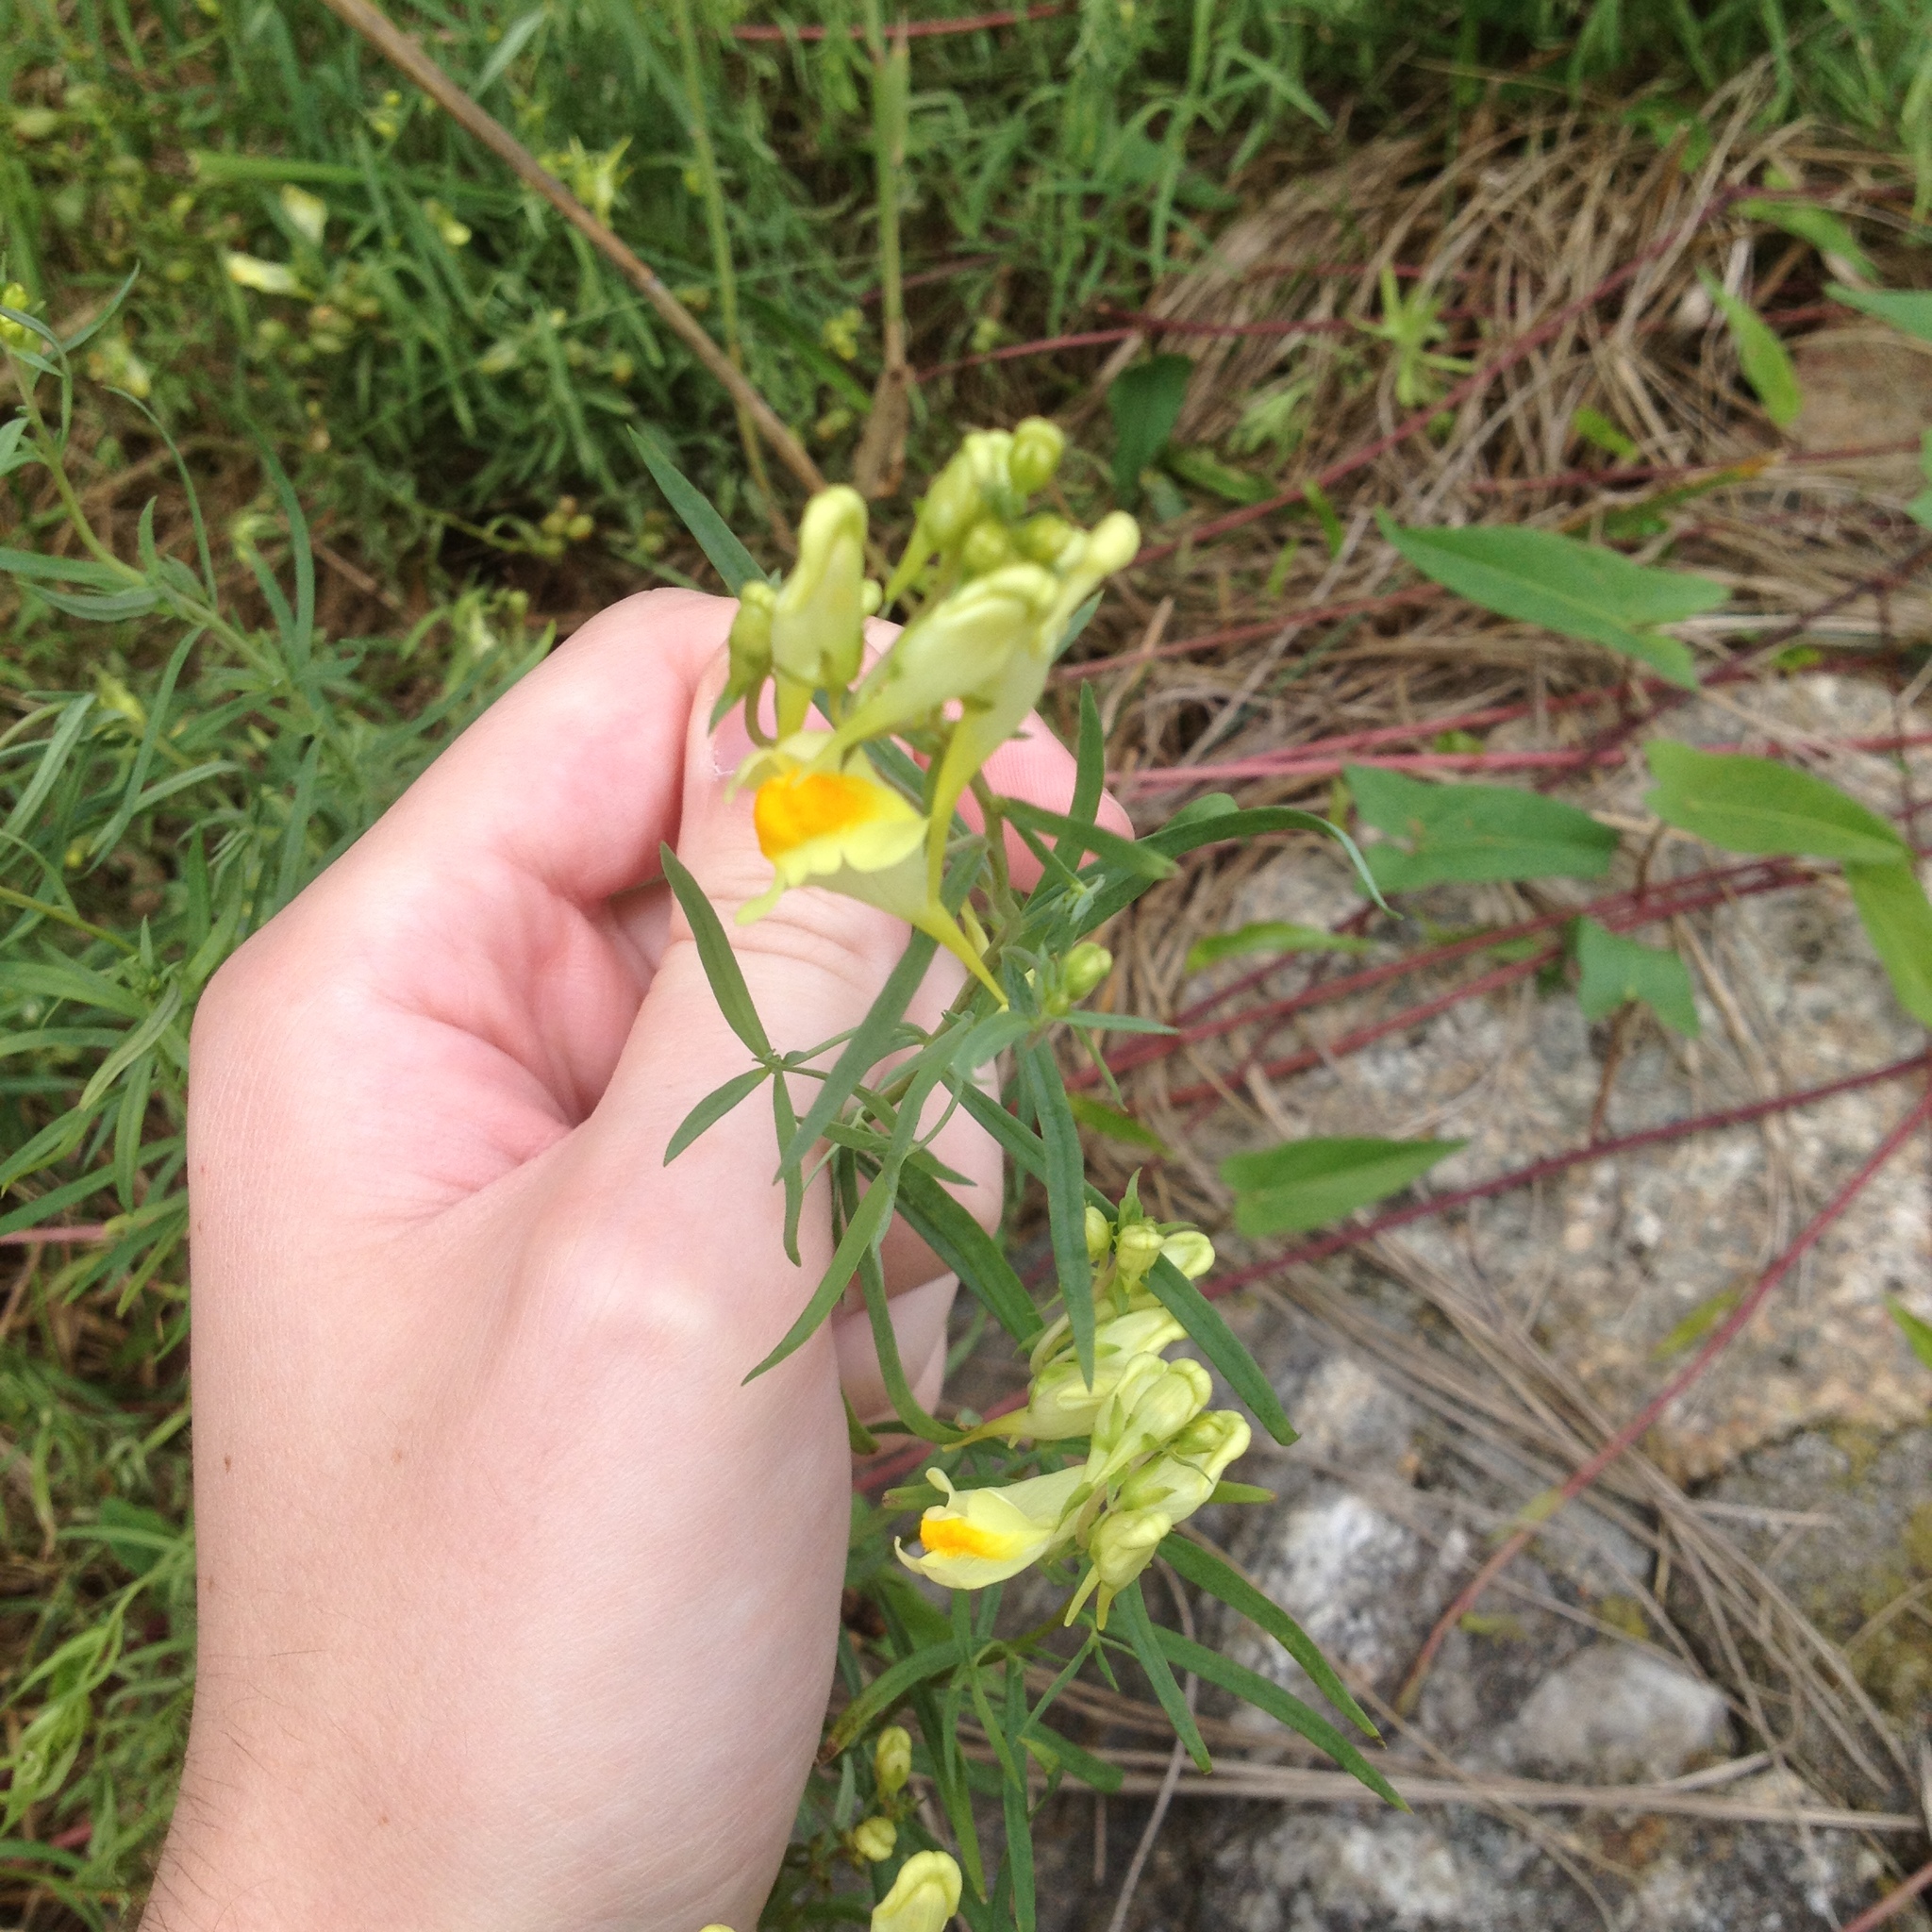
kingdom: Plantae
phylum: Tracheophyta
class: Magnoliopsida
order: Lamiales
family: Plantaginaceae
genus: Linaria
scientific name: Linaria vulgaris
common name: Butter and eggs
